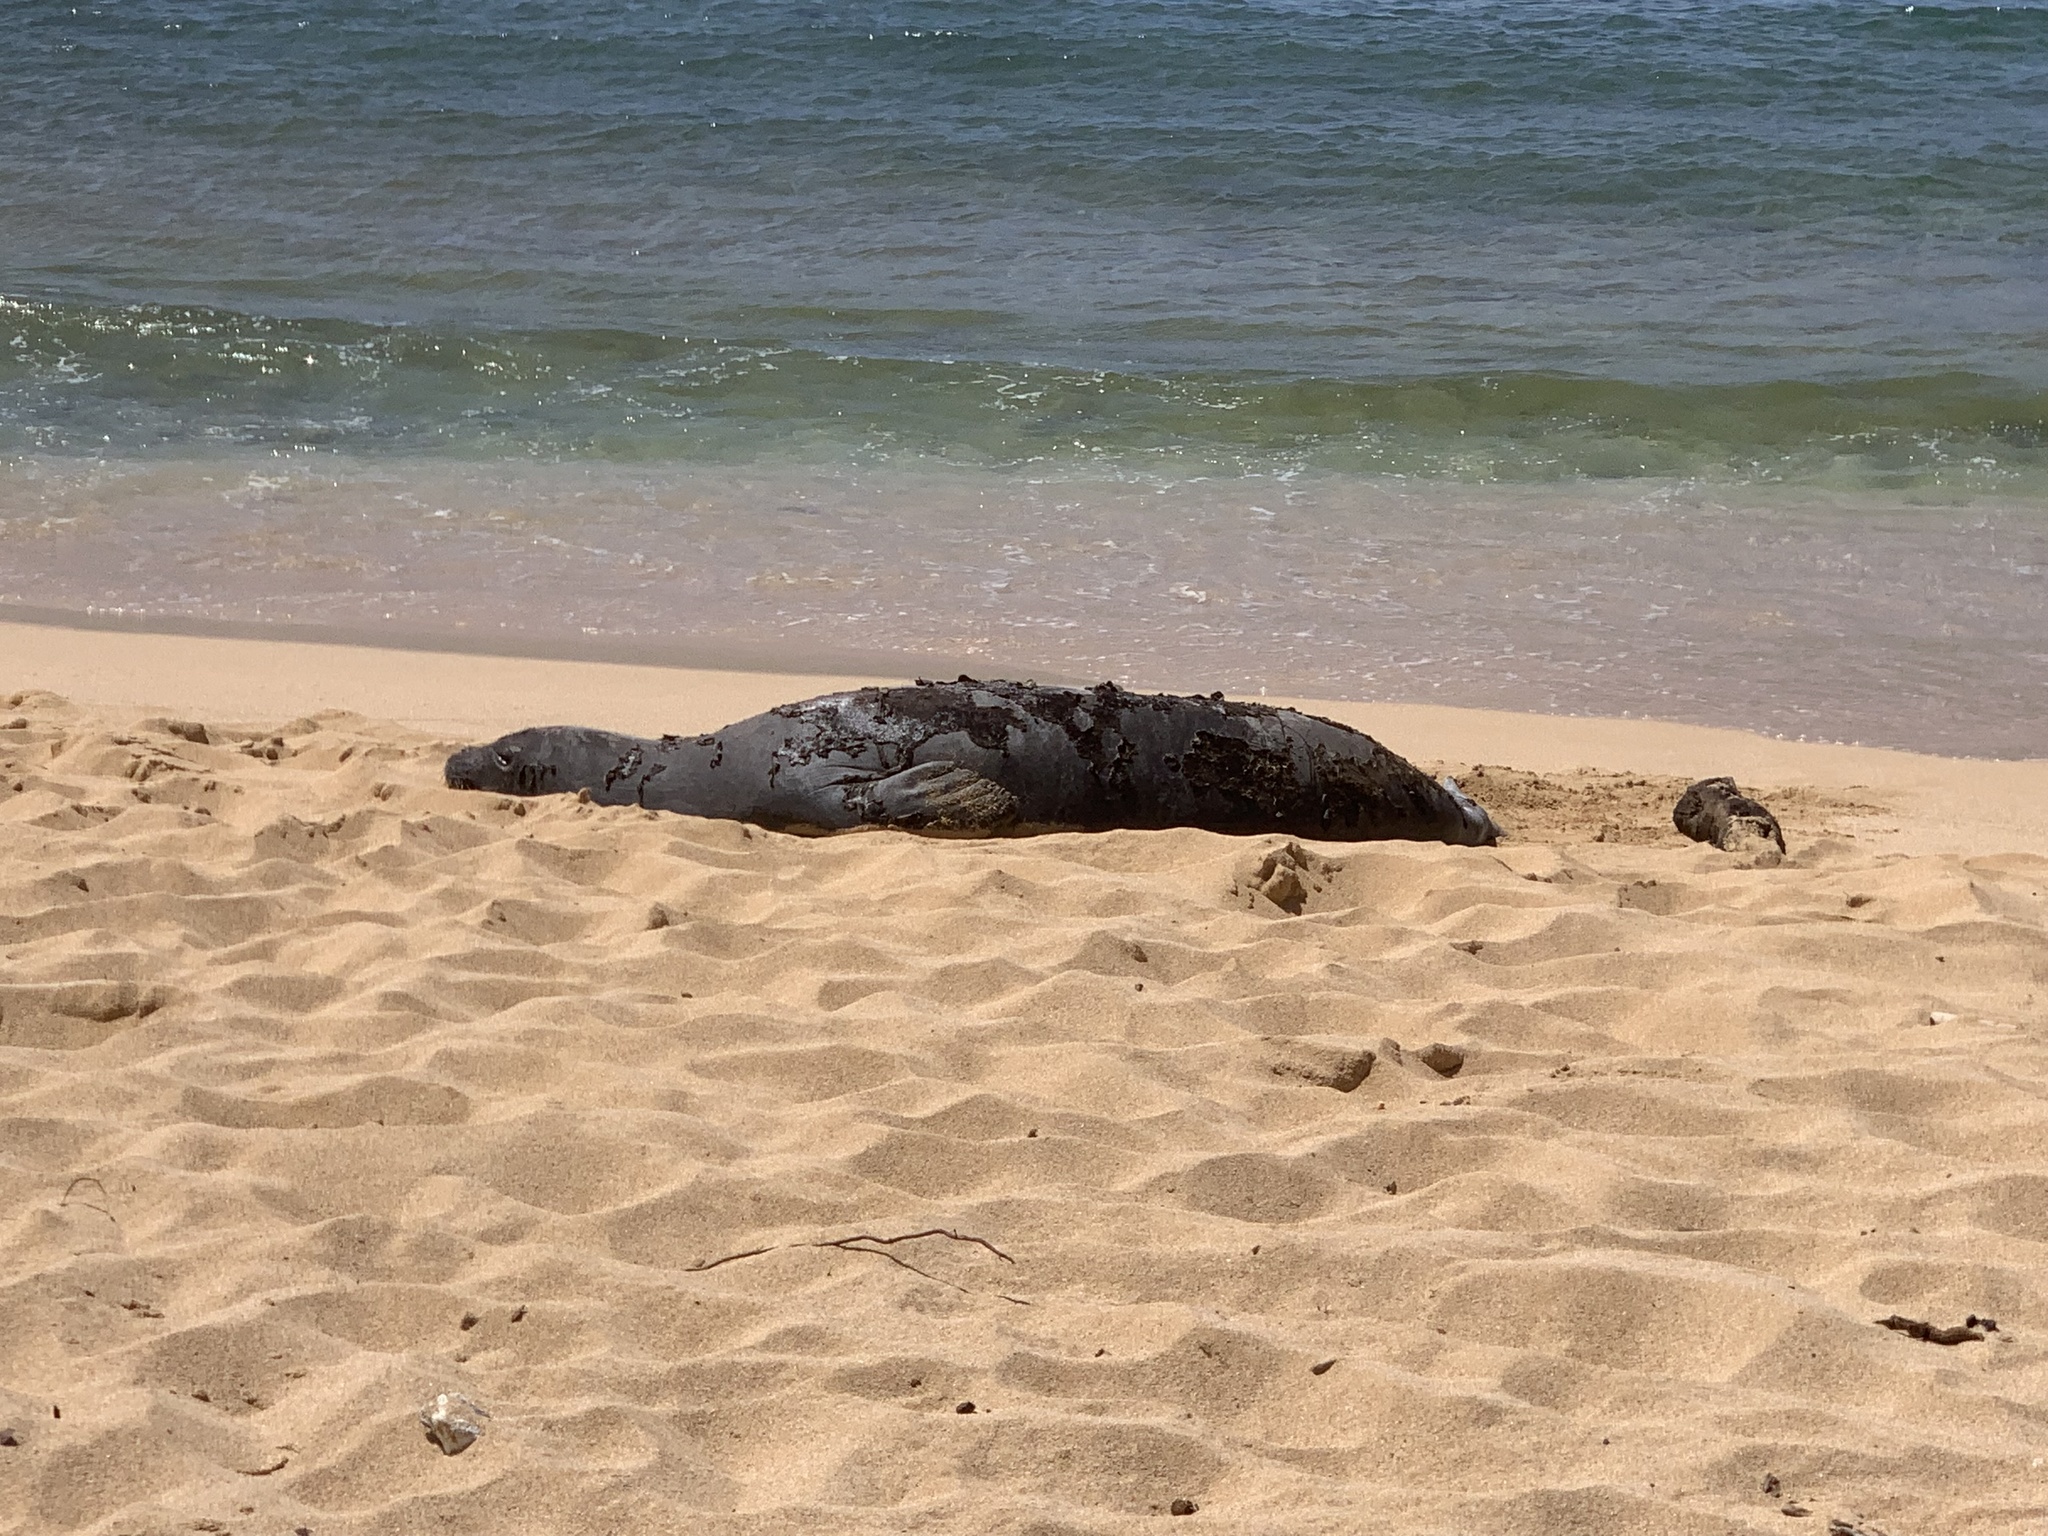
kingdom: Animalia
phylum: Chordata
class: Mammalia
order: Carnivora
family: Phocidae
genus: Neomonachus
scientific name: Neomonachus schauinslandi
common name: Hawaiian monk seal
